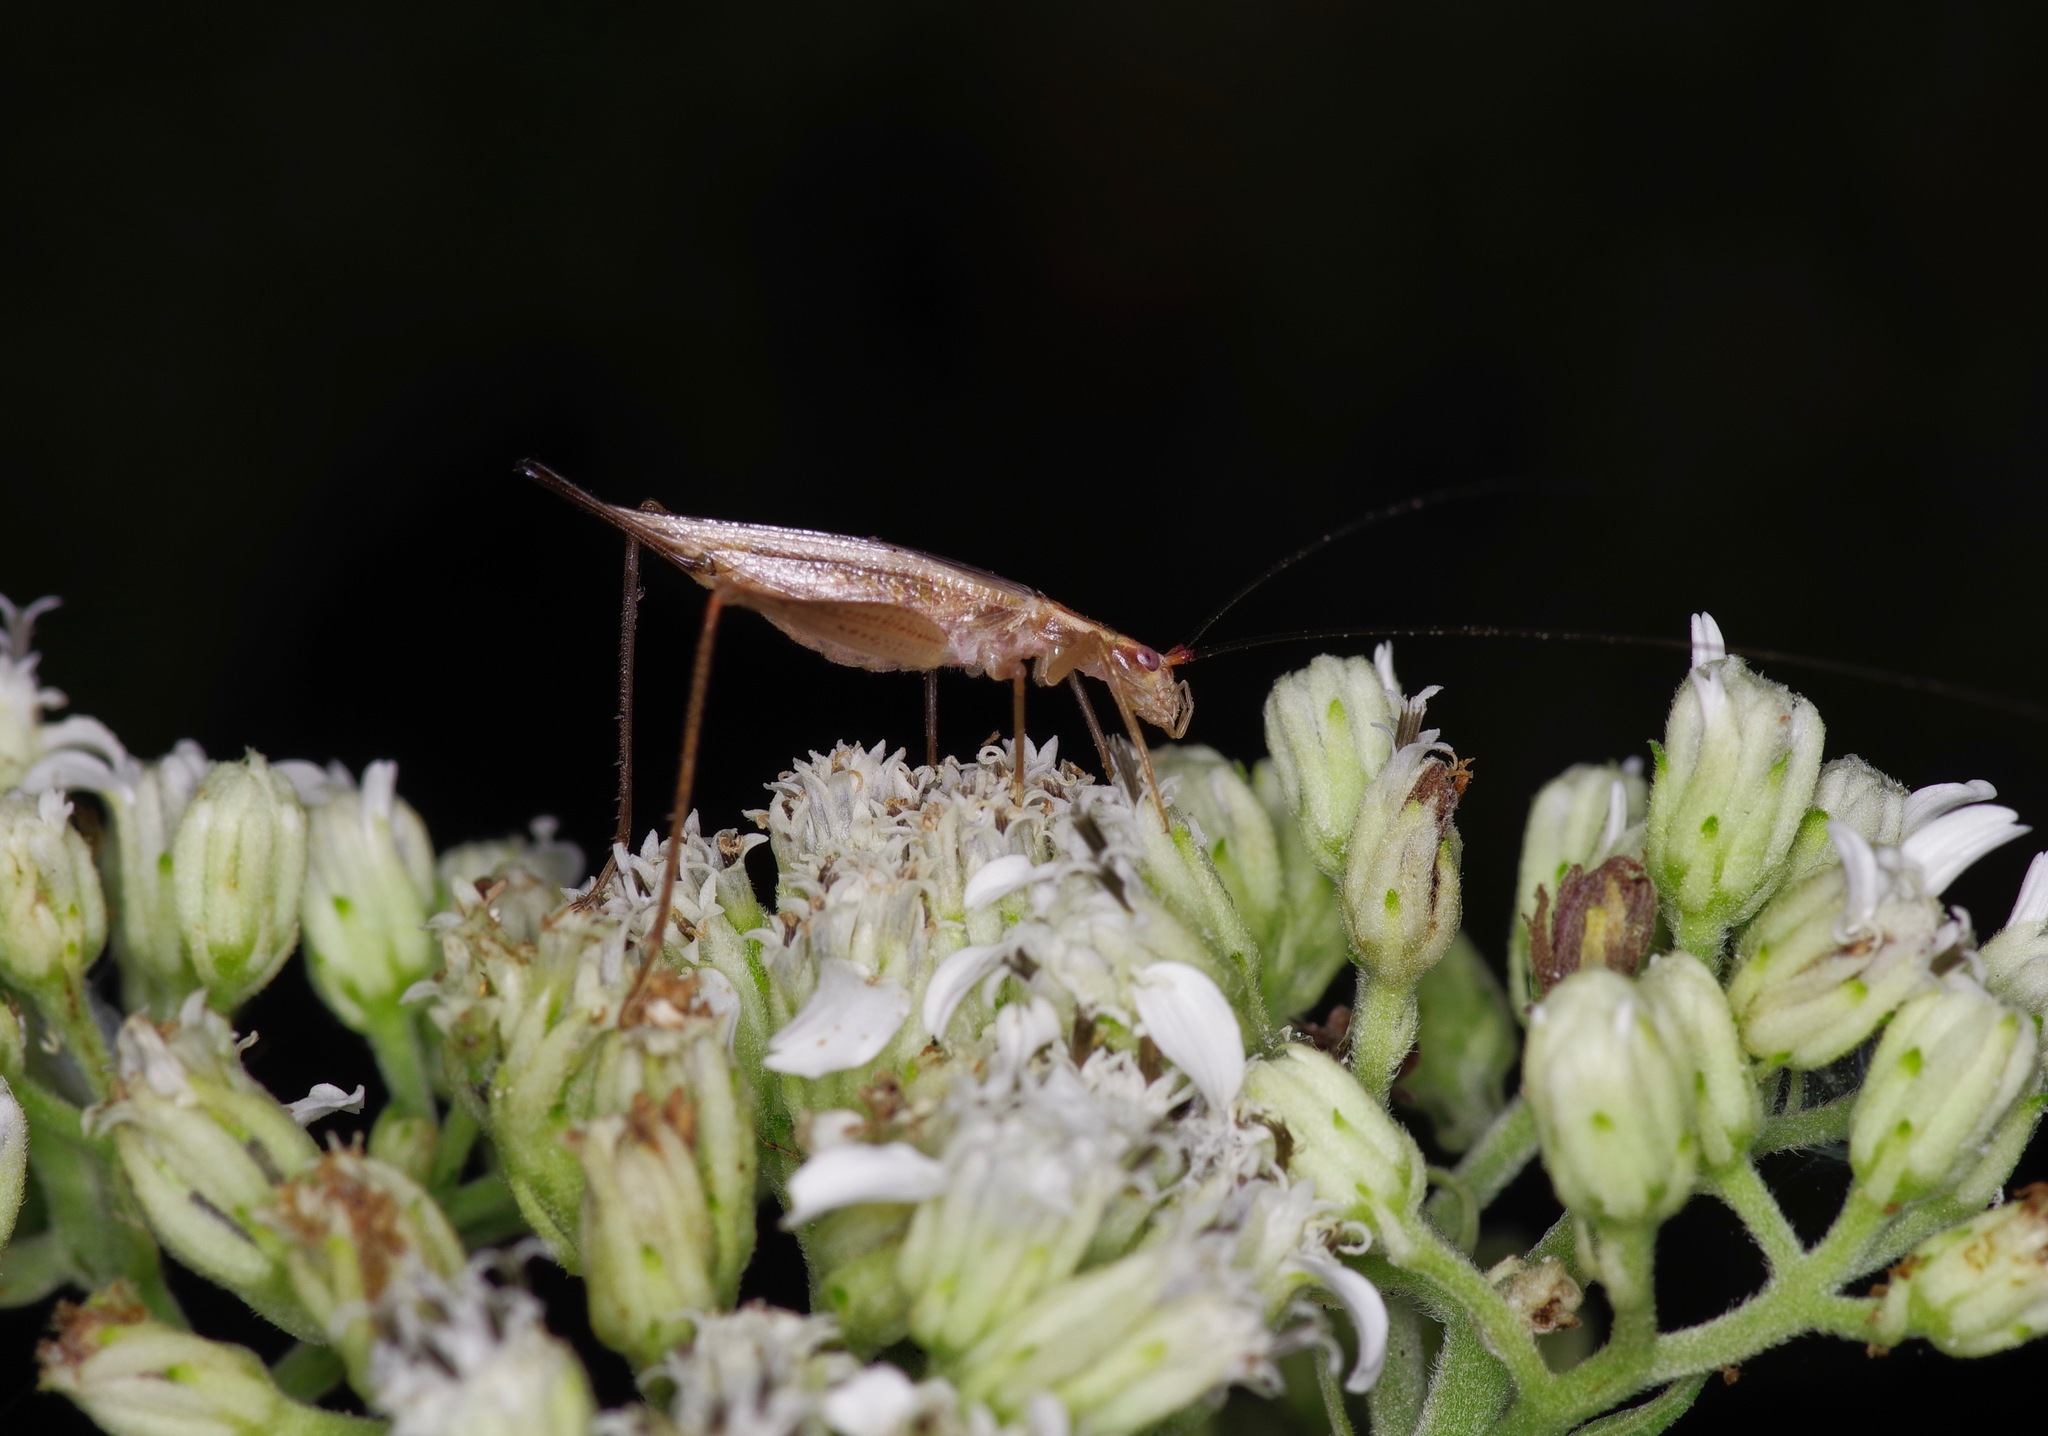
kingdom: Animalia
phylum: Arthropoda
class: Insecta
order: Orthoptera
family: Gryllidae
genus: Oecanthus
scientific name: Oecanthus varicornis
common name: Different-horned tree cricket
